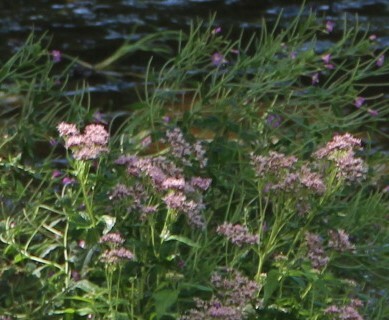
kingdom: Plantae
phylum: Tracheophyta
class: Magnoliopsida
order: Asterales
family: Asteraceae
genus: Eupatorium
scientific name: Eupatorium cannabinum
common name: Hemp-agrimony
